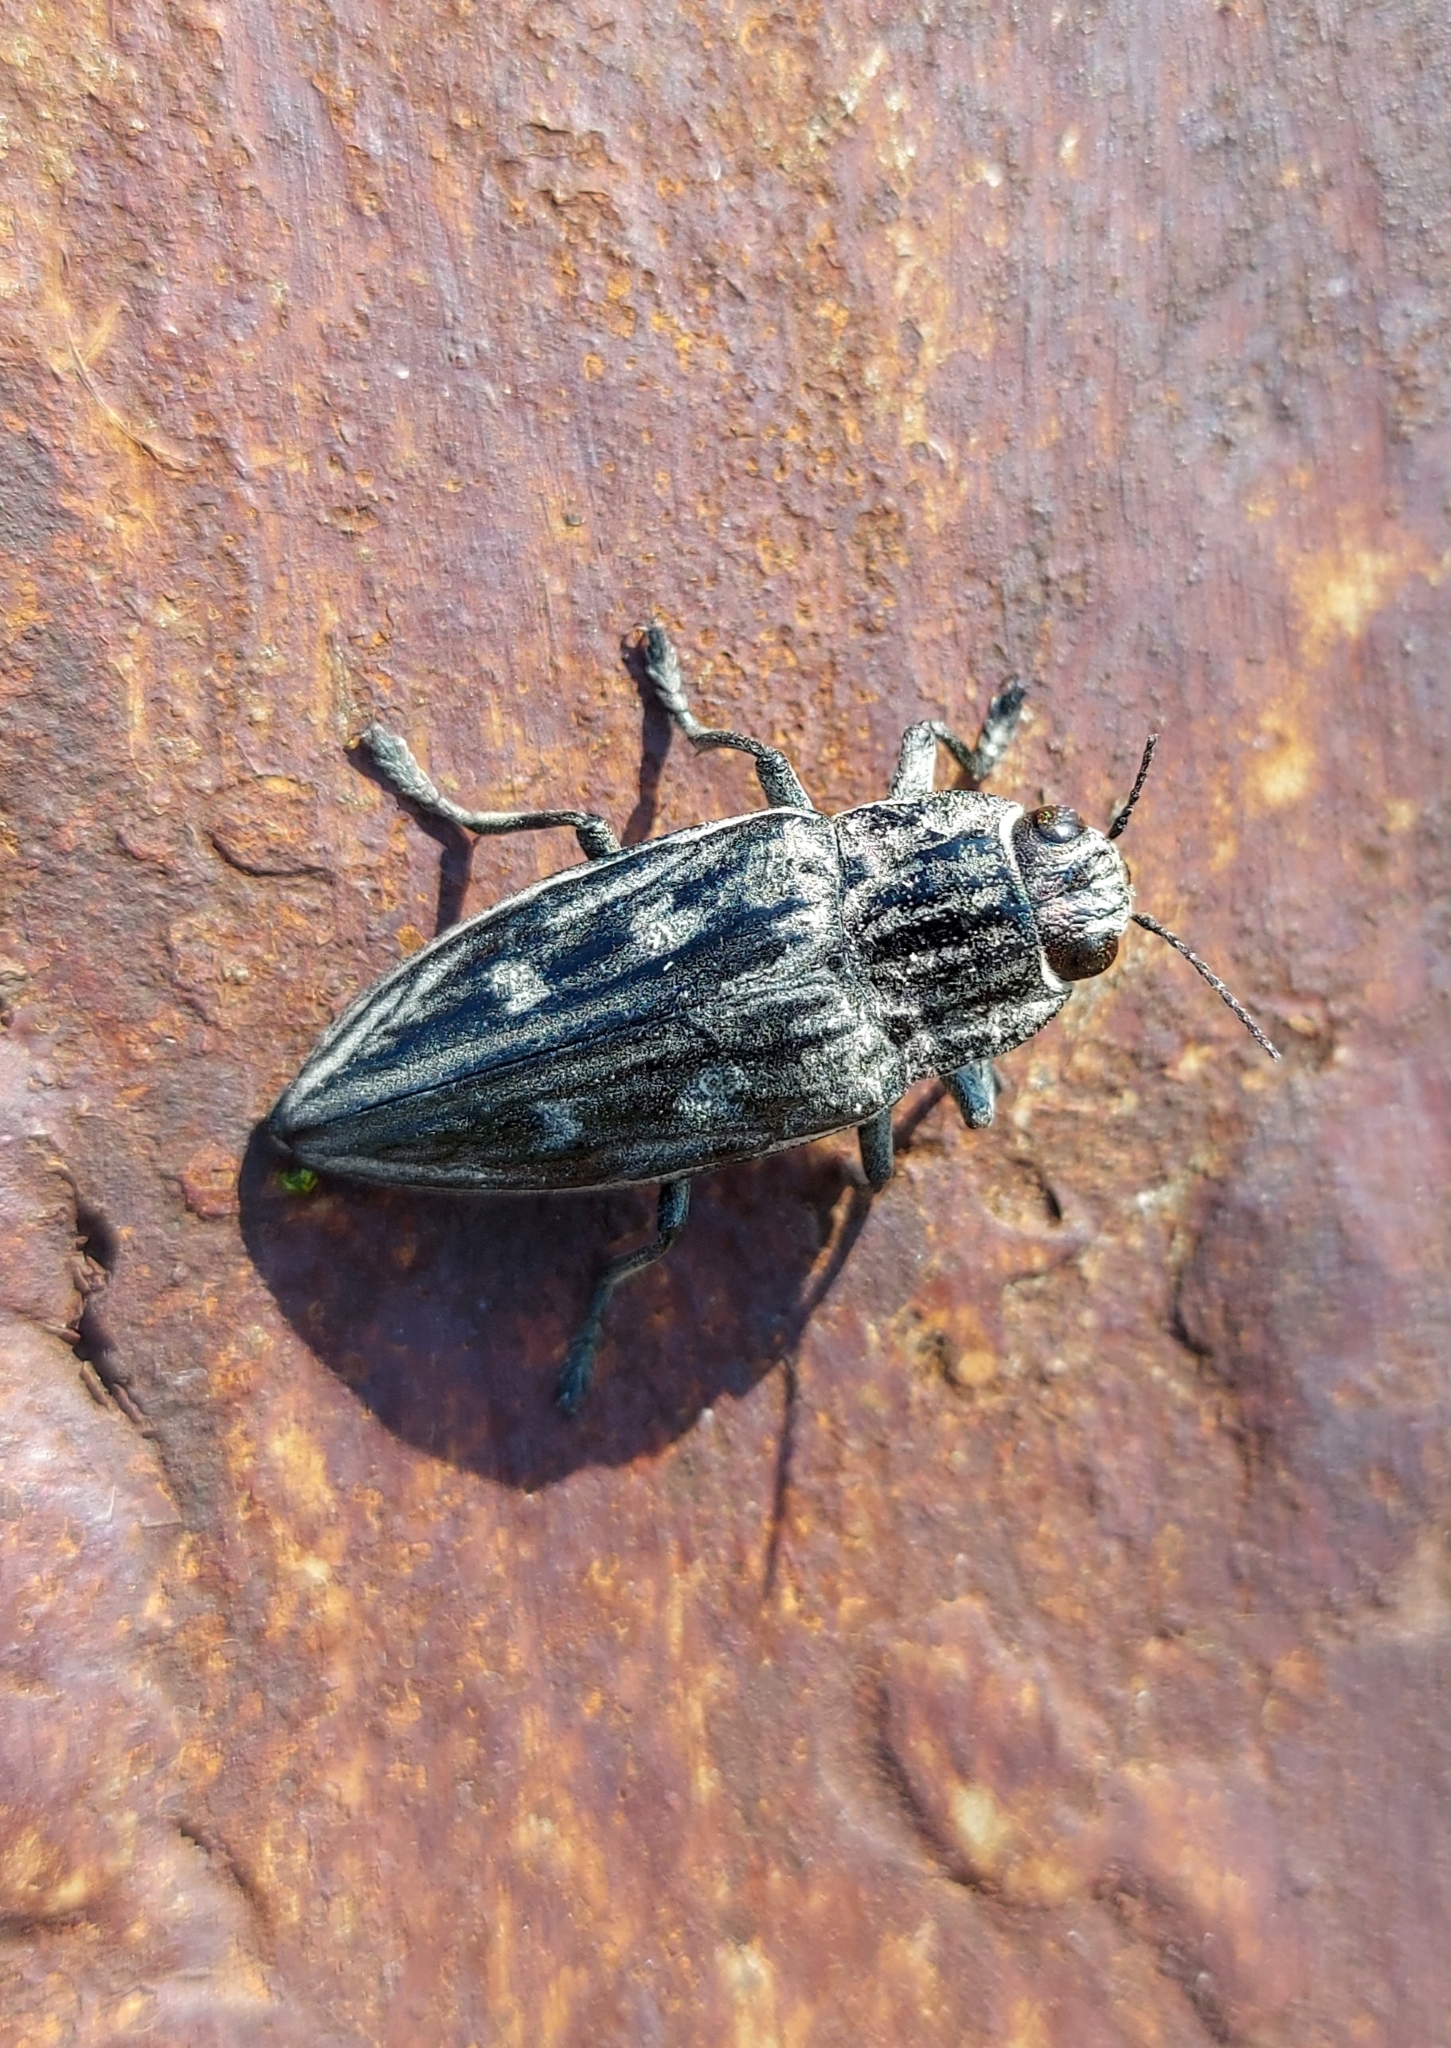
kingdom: Animalia
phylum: Arthropoda
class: Insecta
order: Coleoptera
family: Buprestidae
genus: Chalcophora
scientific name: Chalcophora mariana
